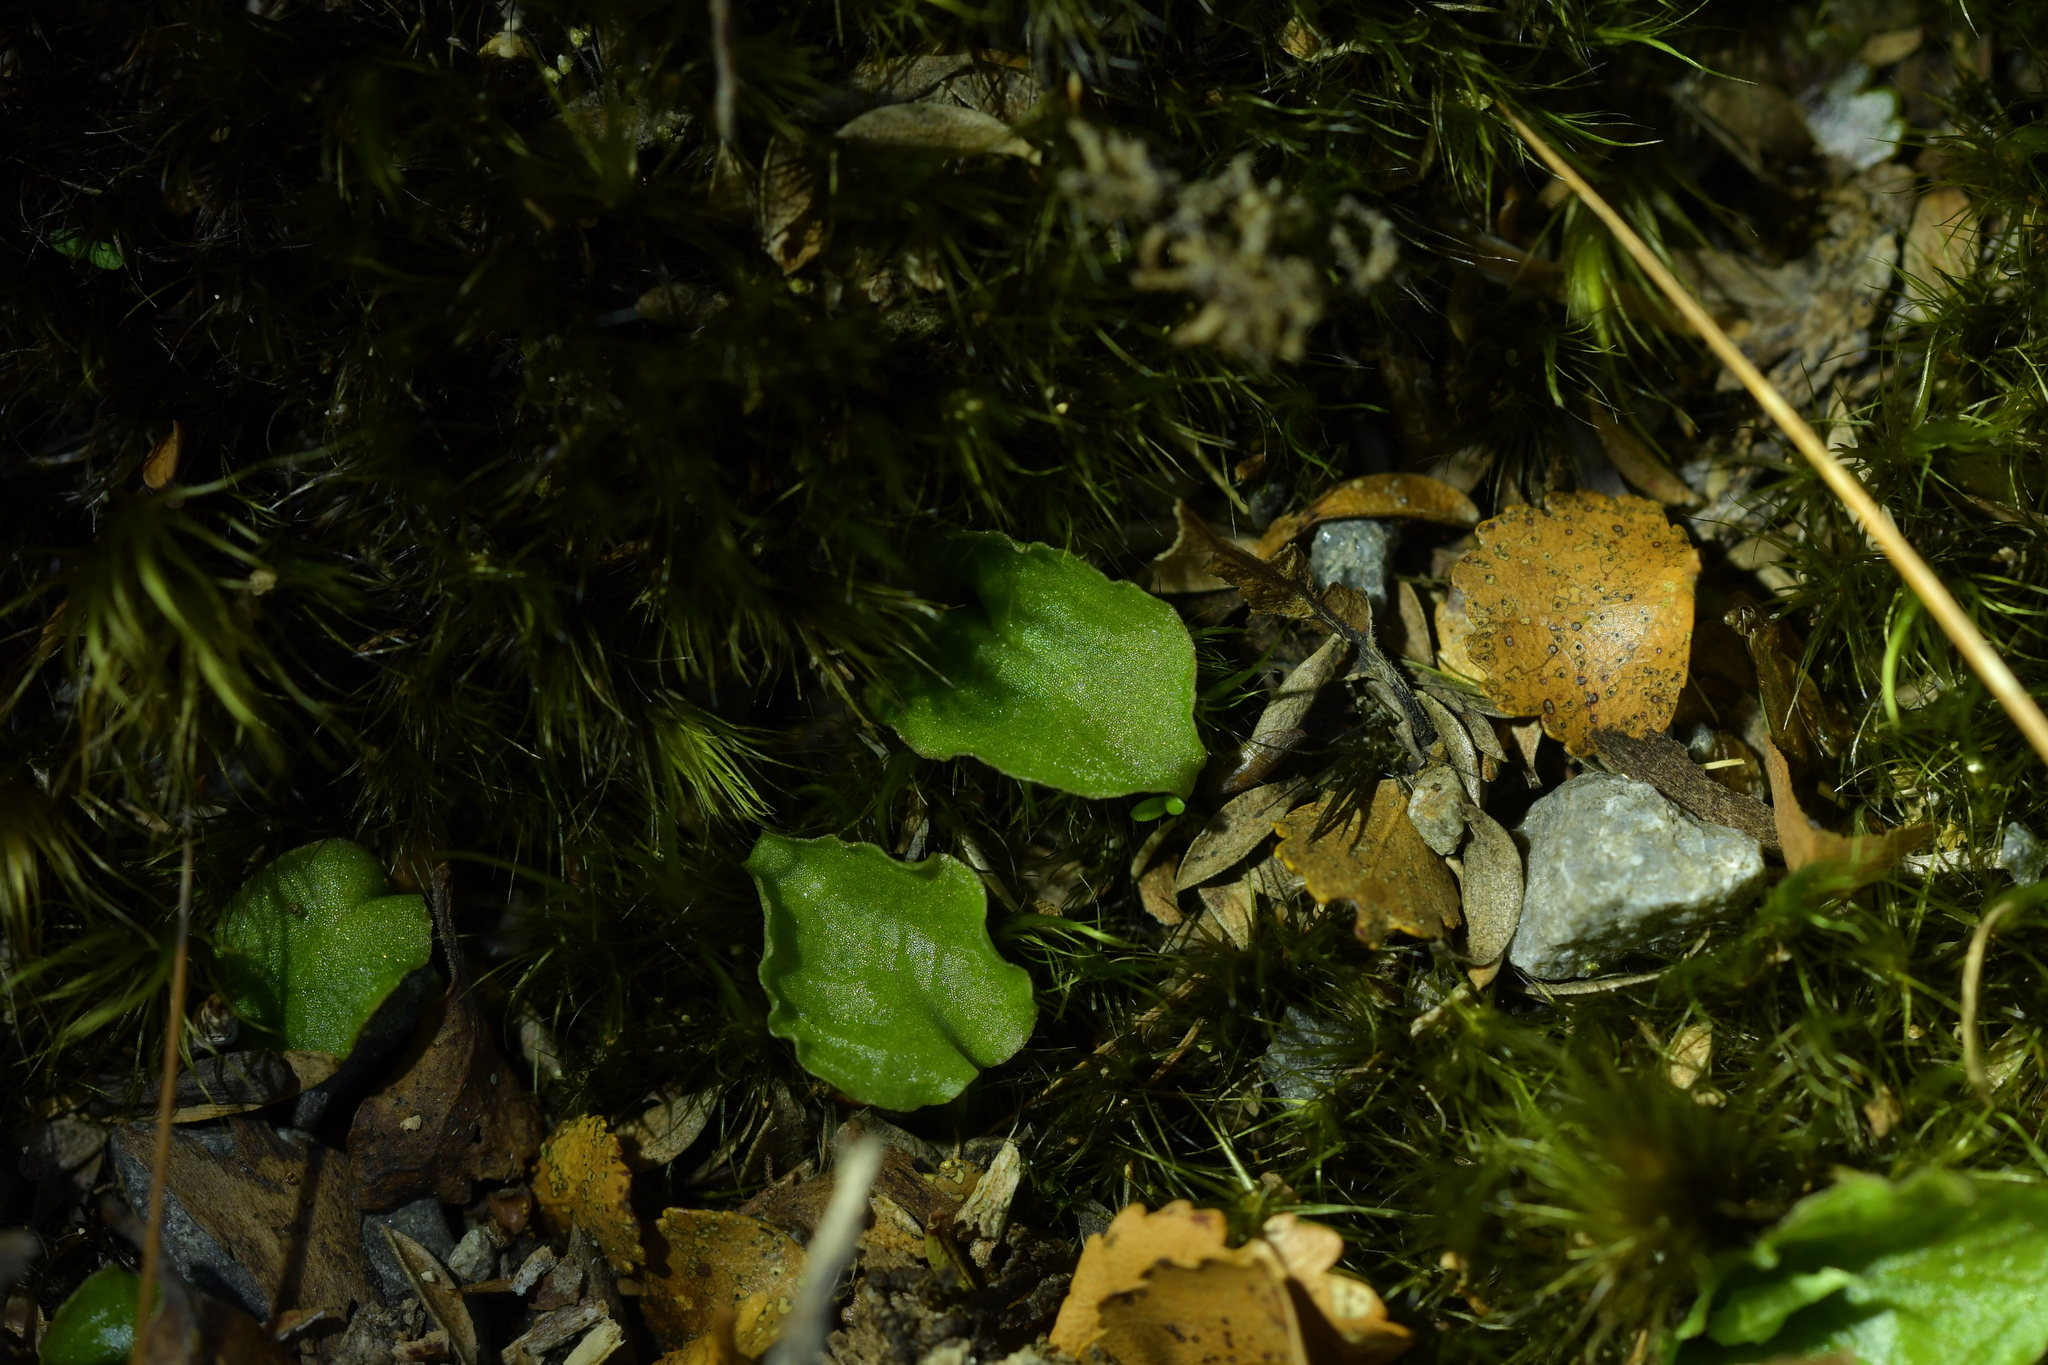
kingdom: Plantae
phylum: Tracheophyta
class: Liliopsida
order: Asparagales
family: Orchidaceae
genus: Corybas
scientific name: Corybas oblongus
